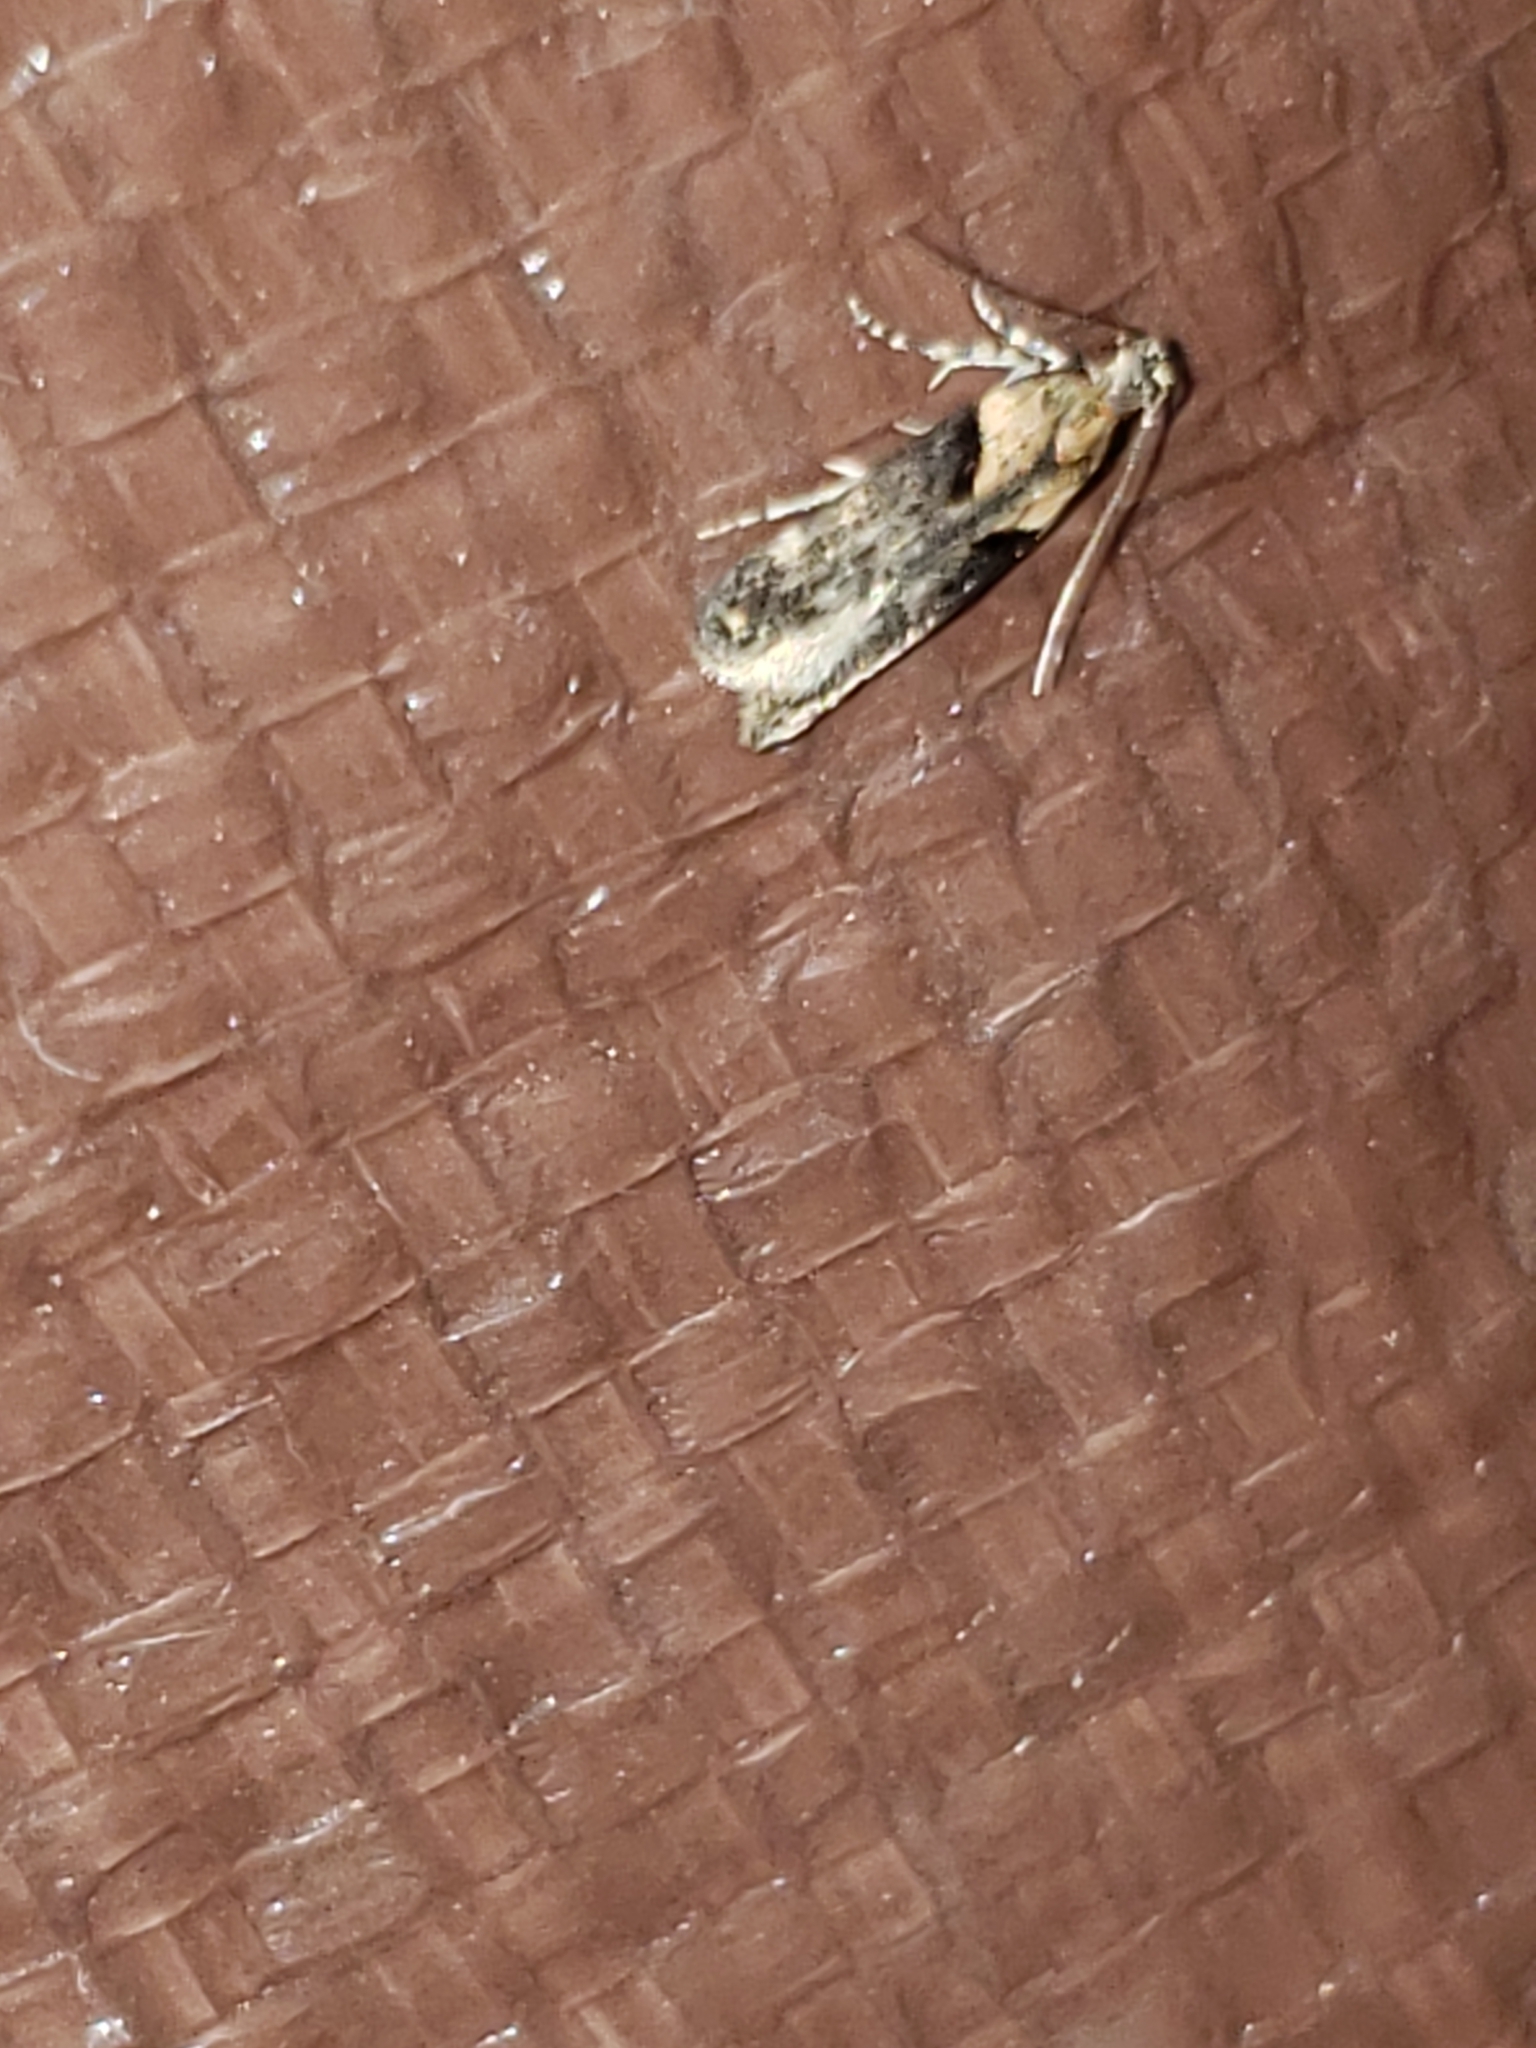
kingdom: Animalia
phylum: Arthropoda
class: Insecta
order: Lepidoptera
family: Gelechiidae
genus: Chionodes
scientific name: Chionodes mediofuscella
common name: Black-smudged chionodes moth
